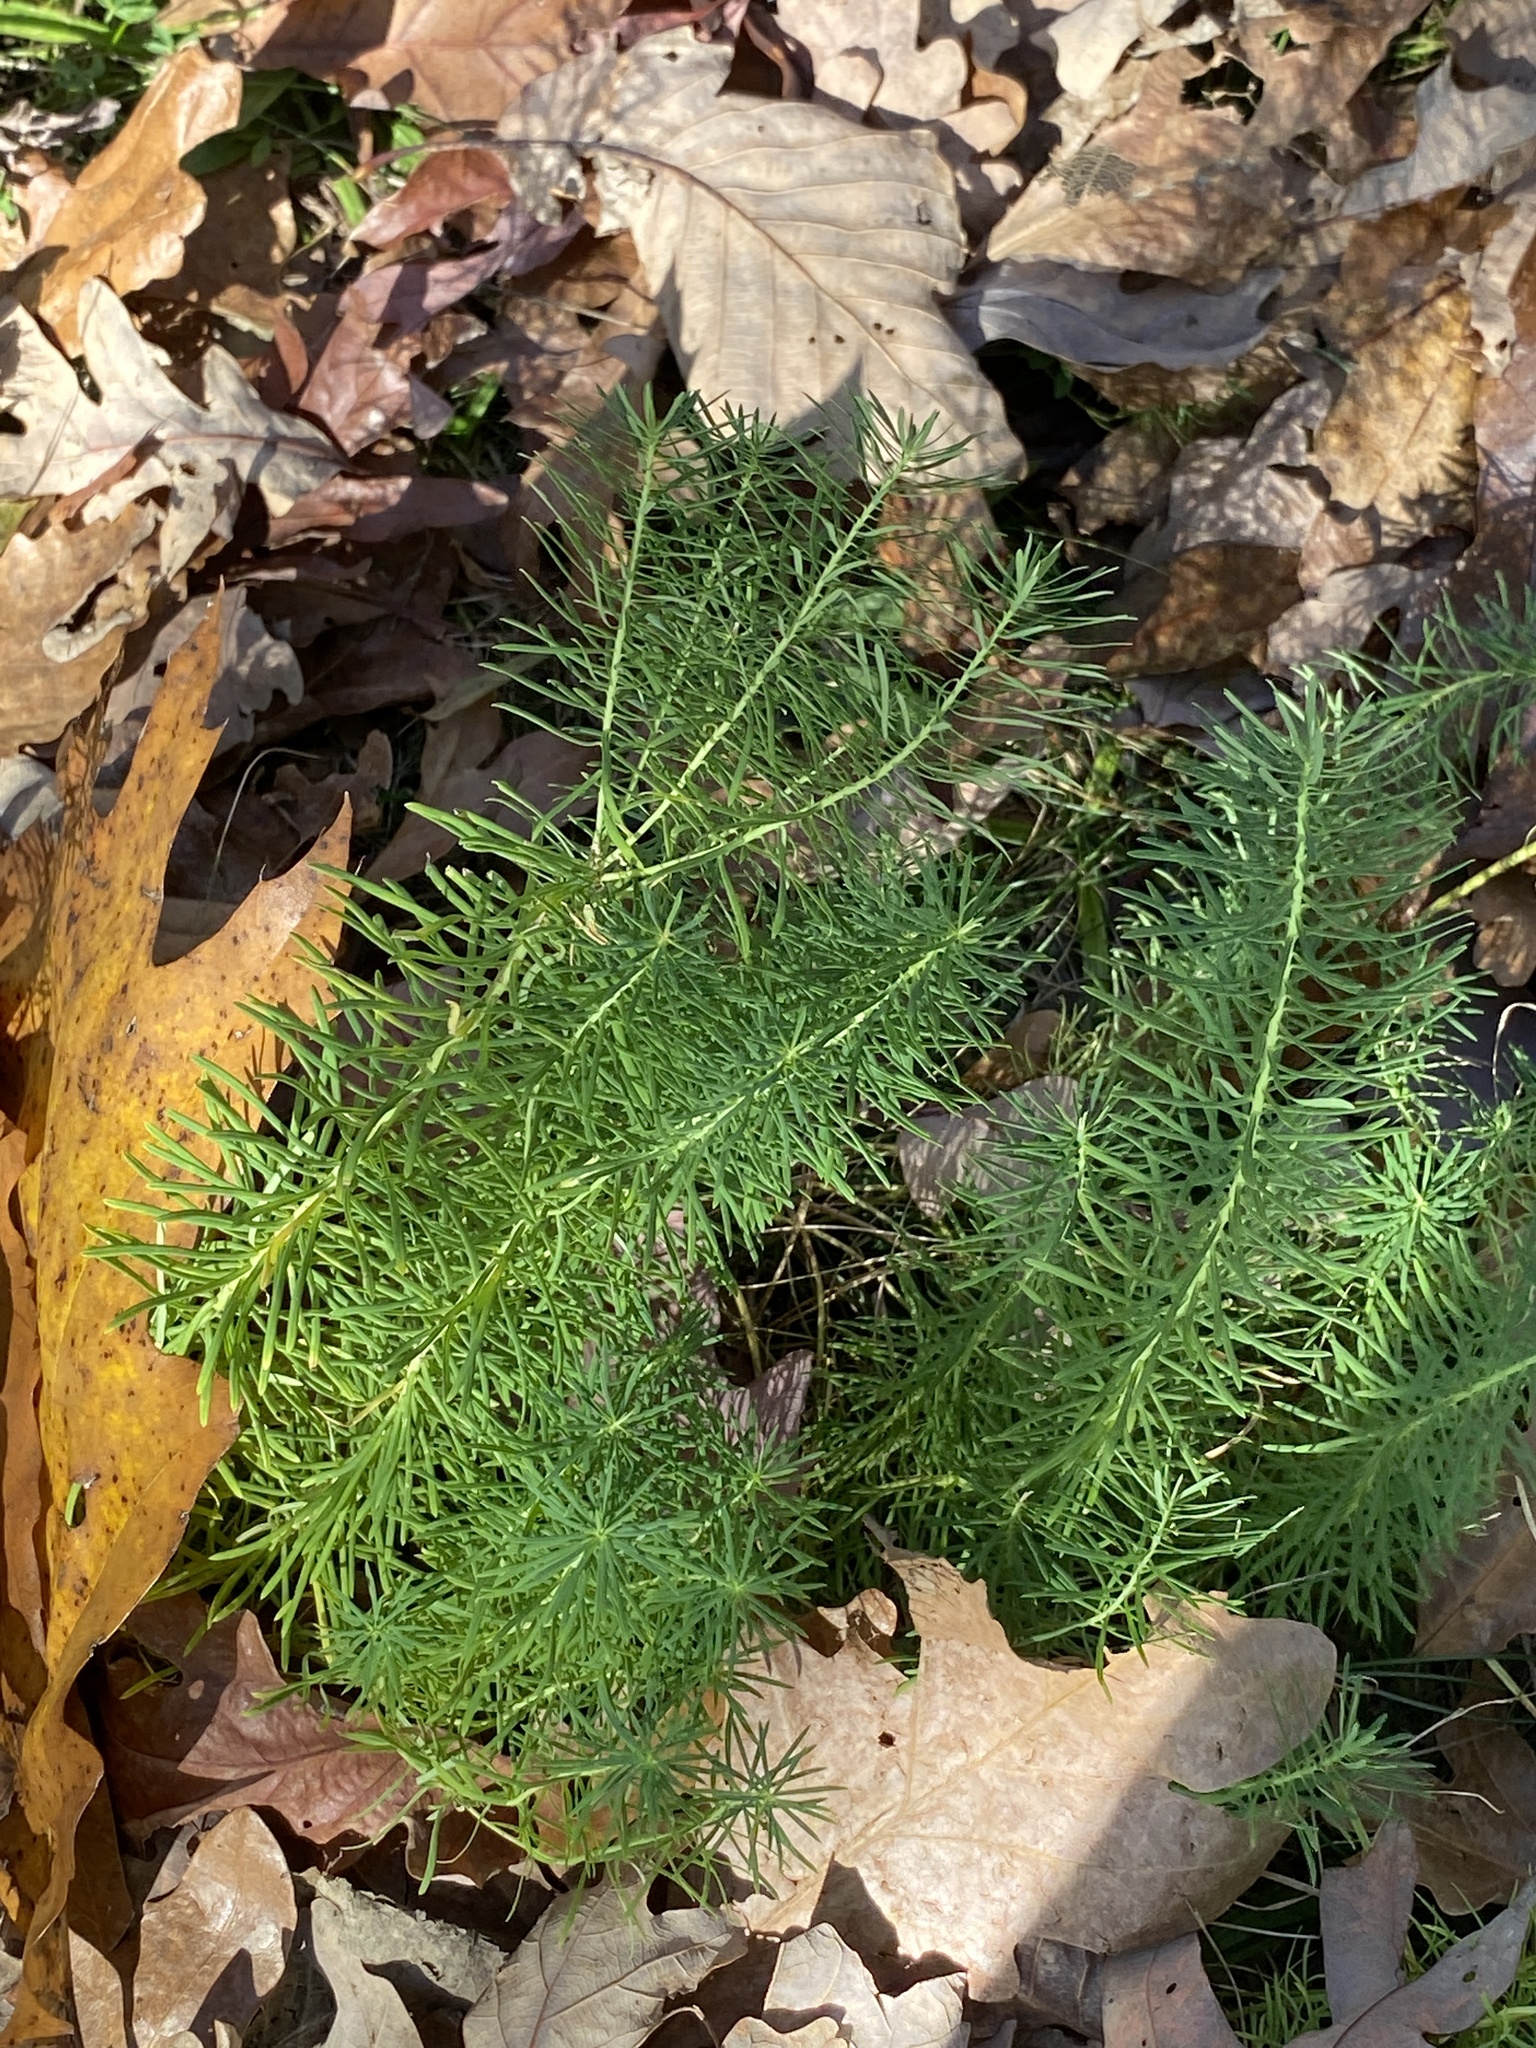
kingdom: Plantae
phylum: Tracheophyta
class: Magnoliopsida
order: Malpighiales
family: Euphorbiaceae
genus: Euphorbia
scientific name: Euphorbia cyparissias
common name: Cypress spurge
